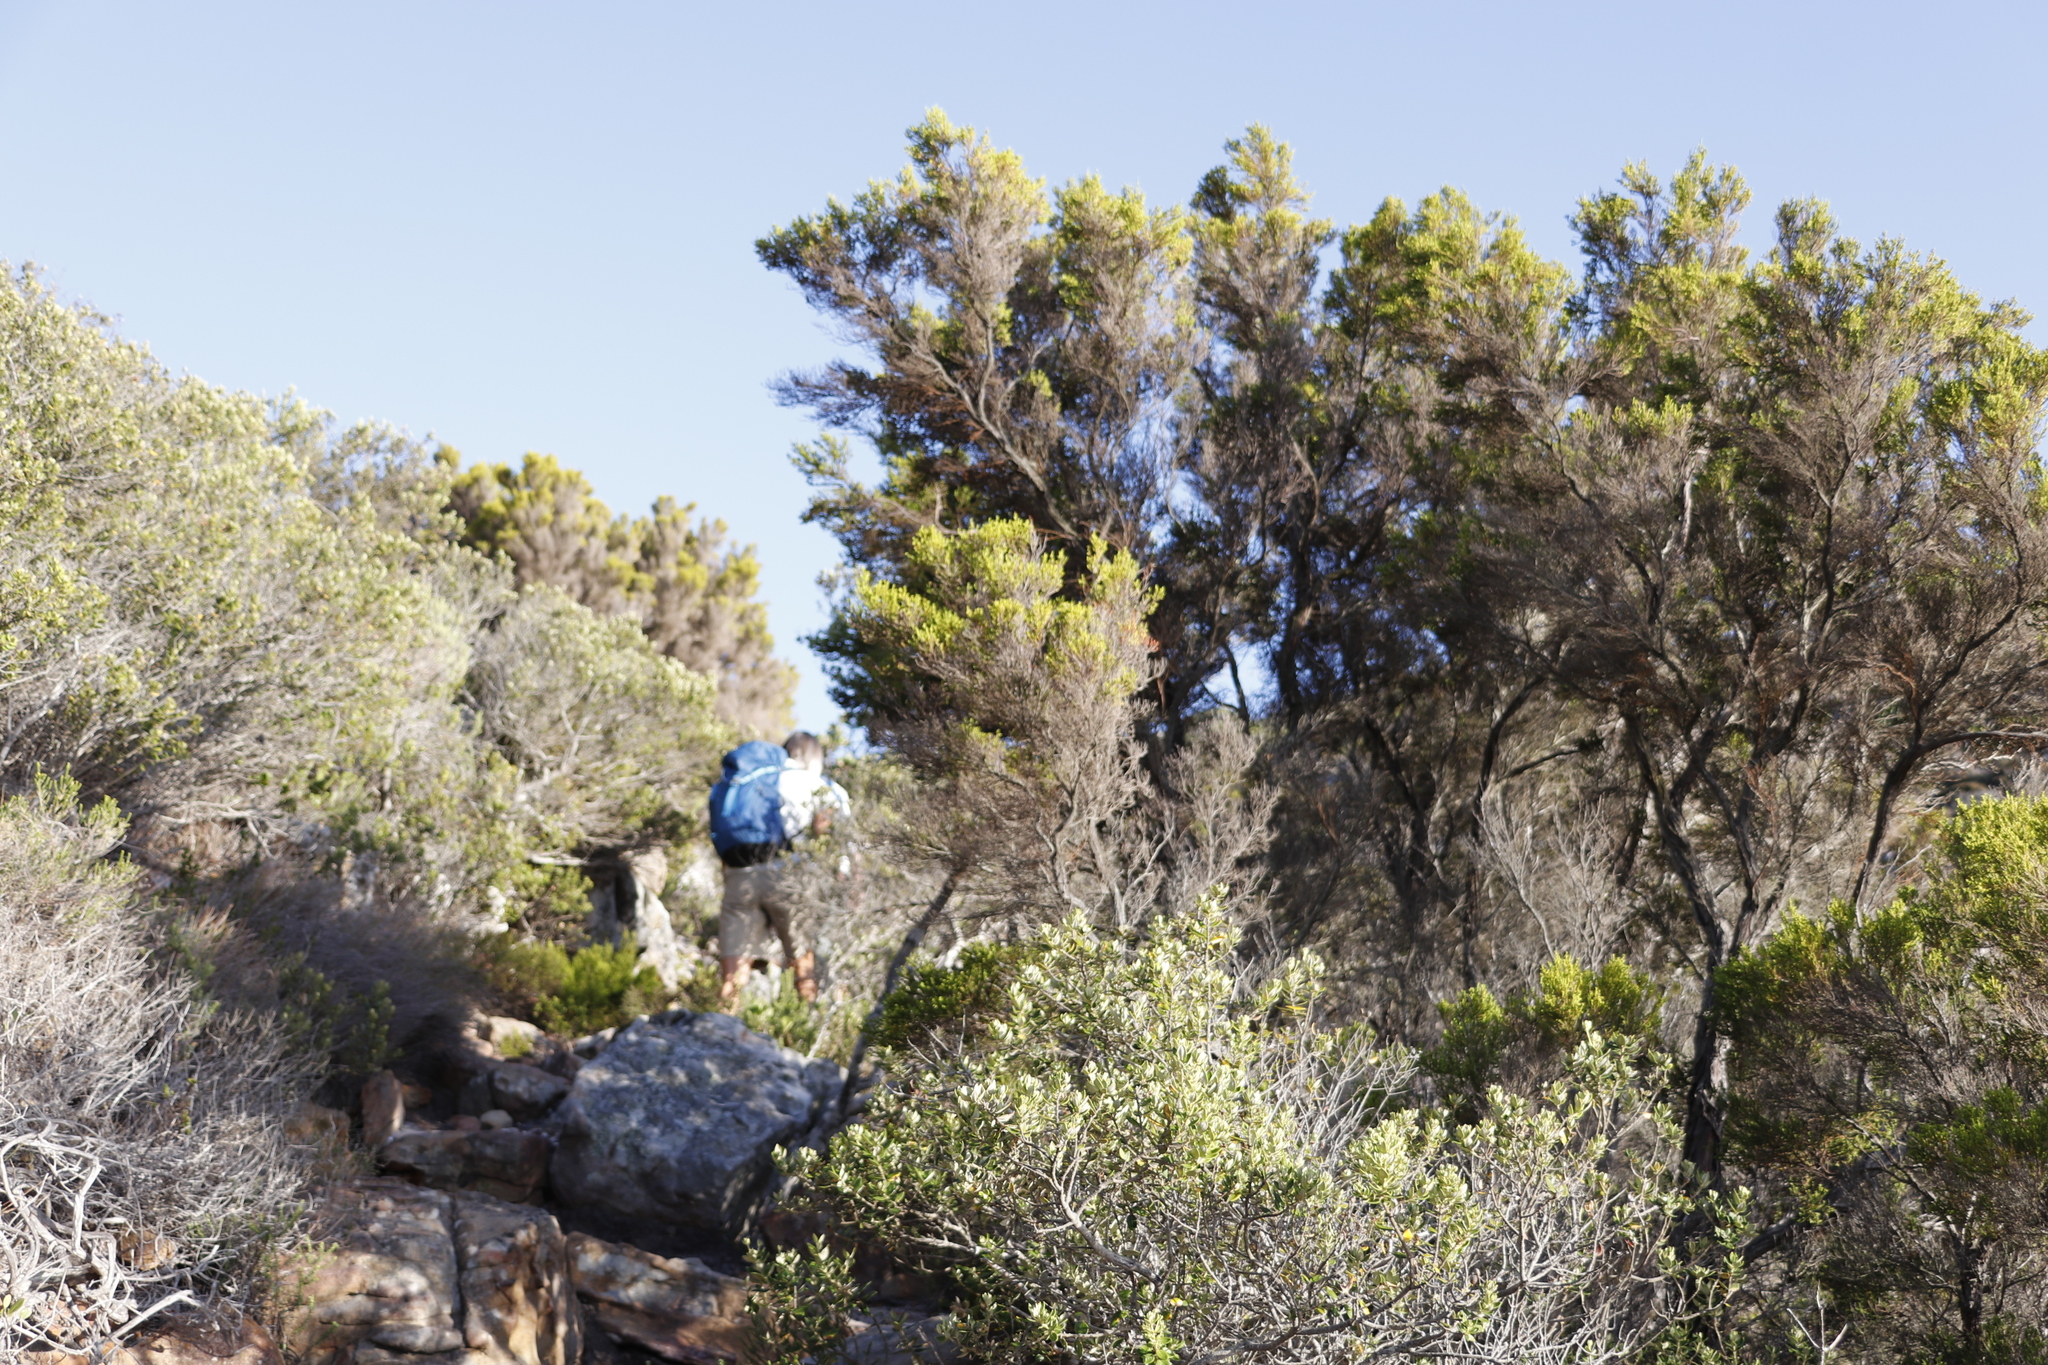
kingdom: Plantae
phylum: Tracheophyta
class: Magnoliopsida
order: Ericales
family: Ericaceae
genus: Erica
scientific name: Erica tristis
